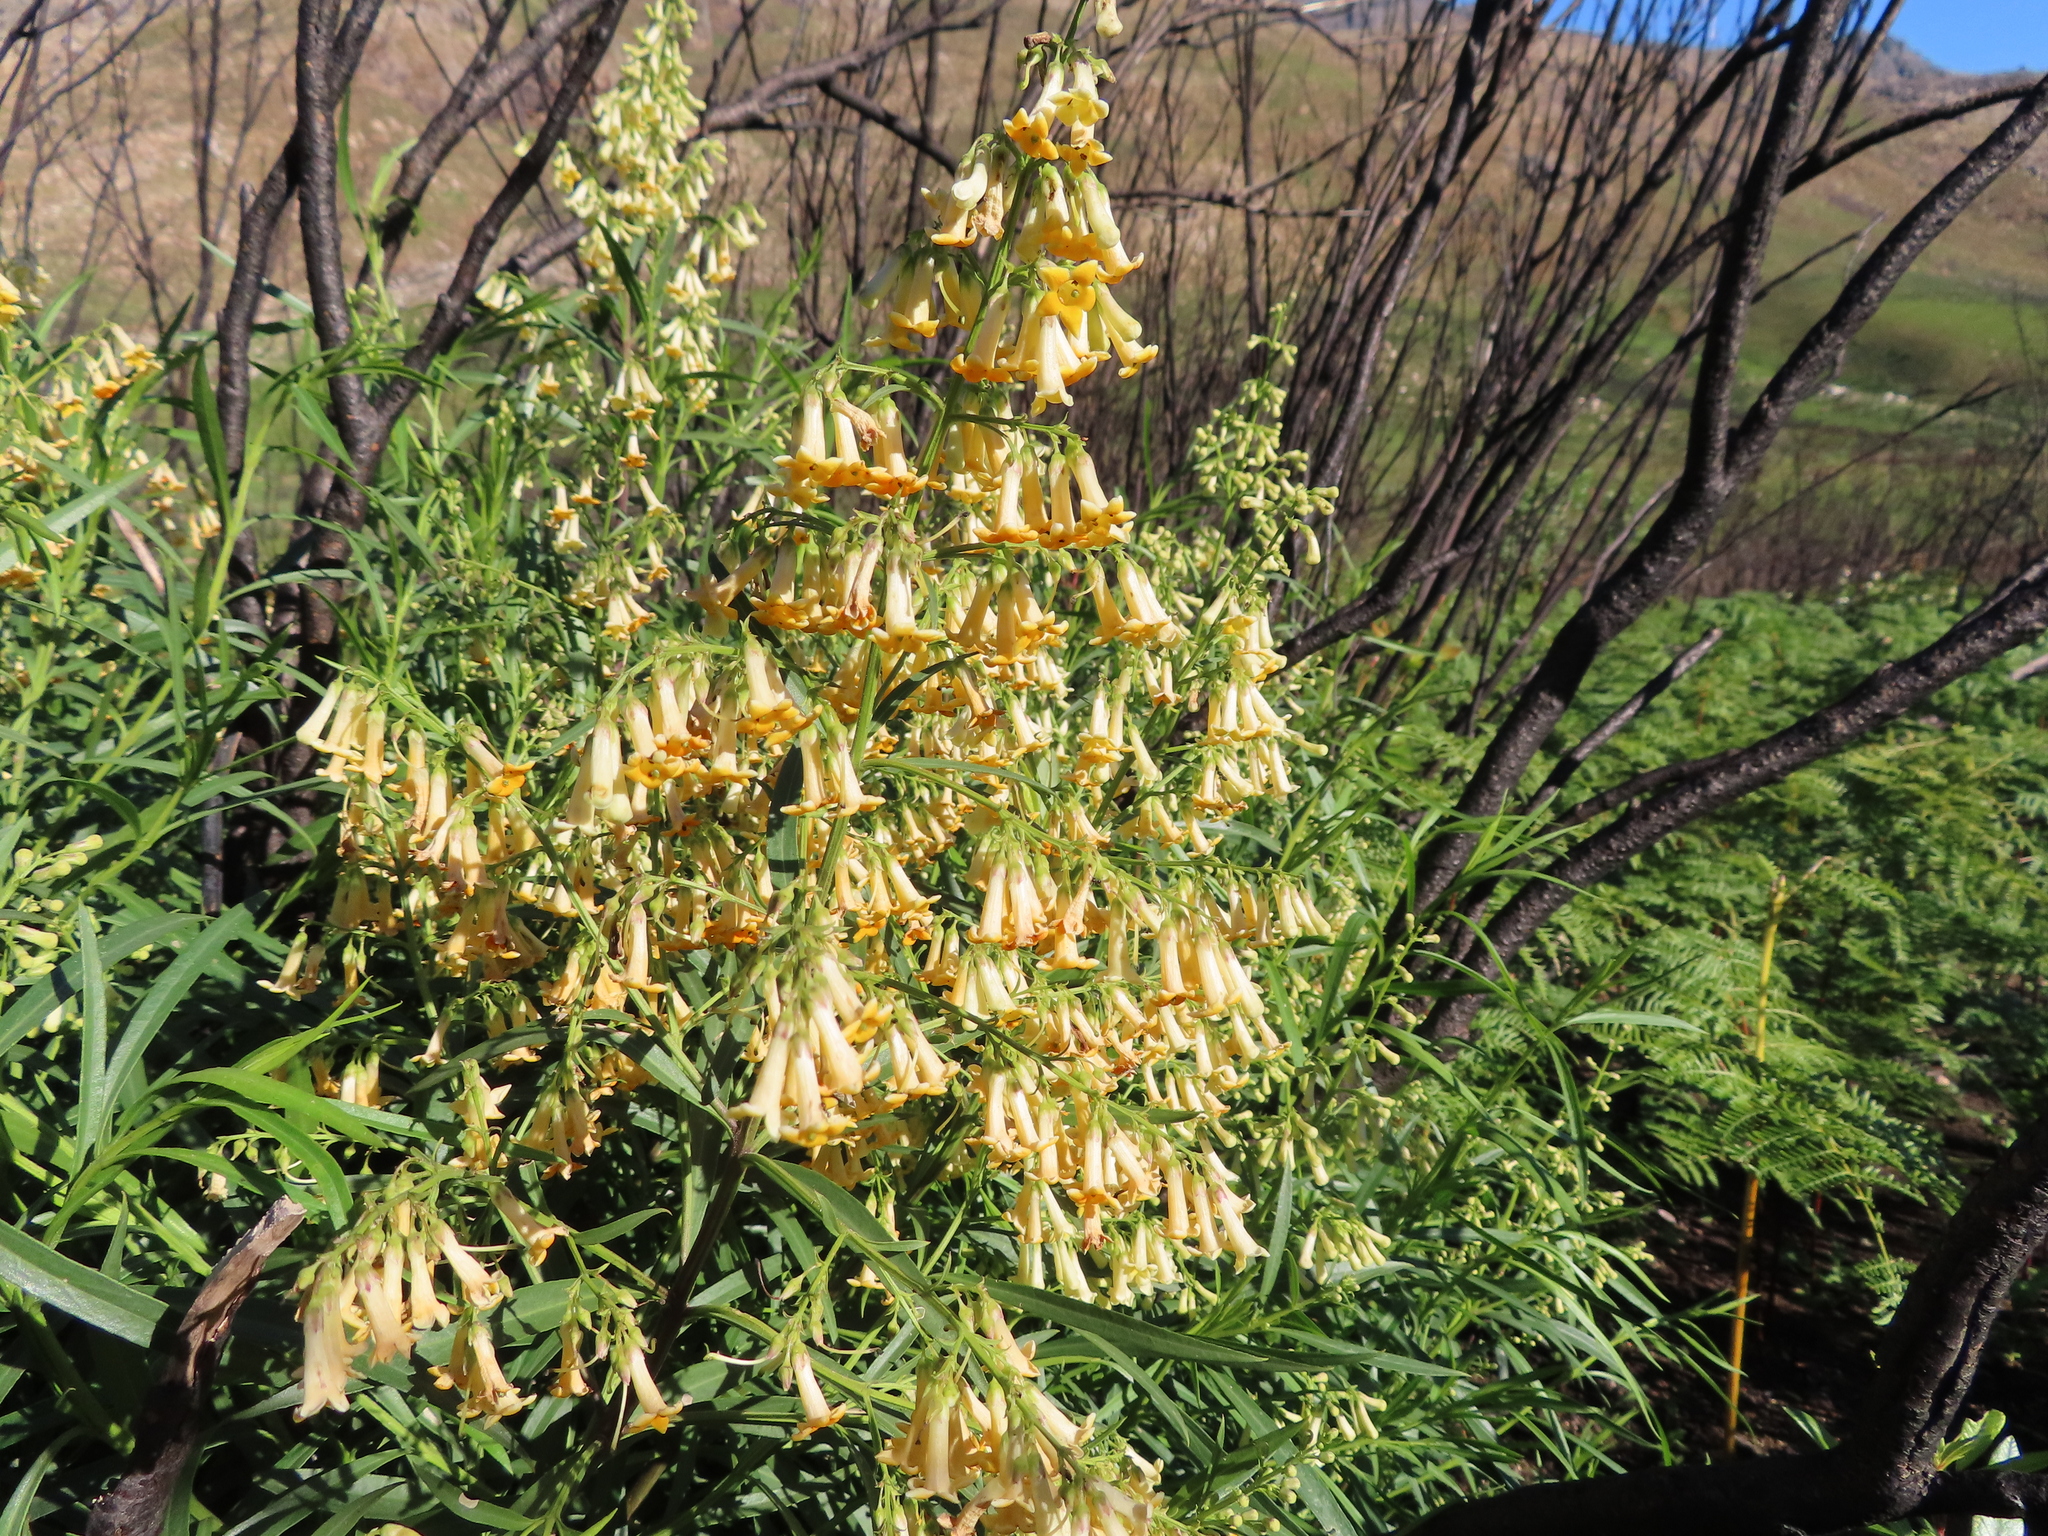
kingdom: Plantae
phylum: Tracheophyta
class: Magnoliopsida
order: Lamiales
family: Scrophulariaceae
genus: Freylinia
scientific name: Freylinia lanceolata
